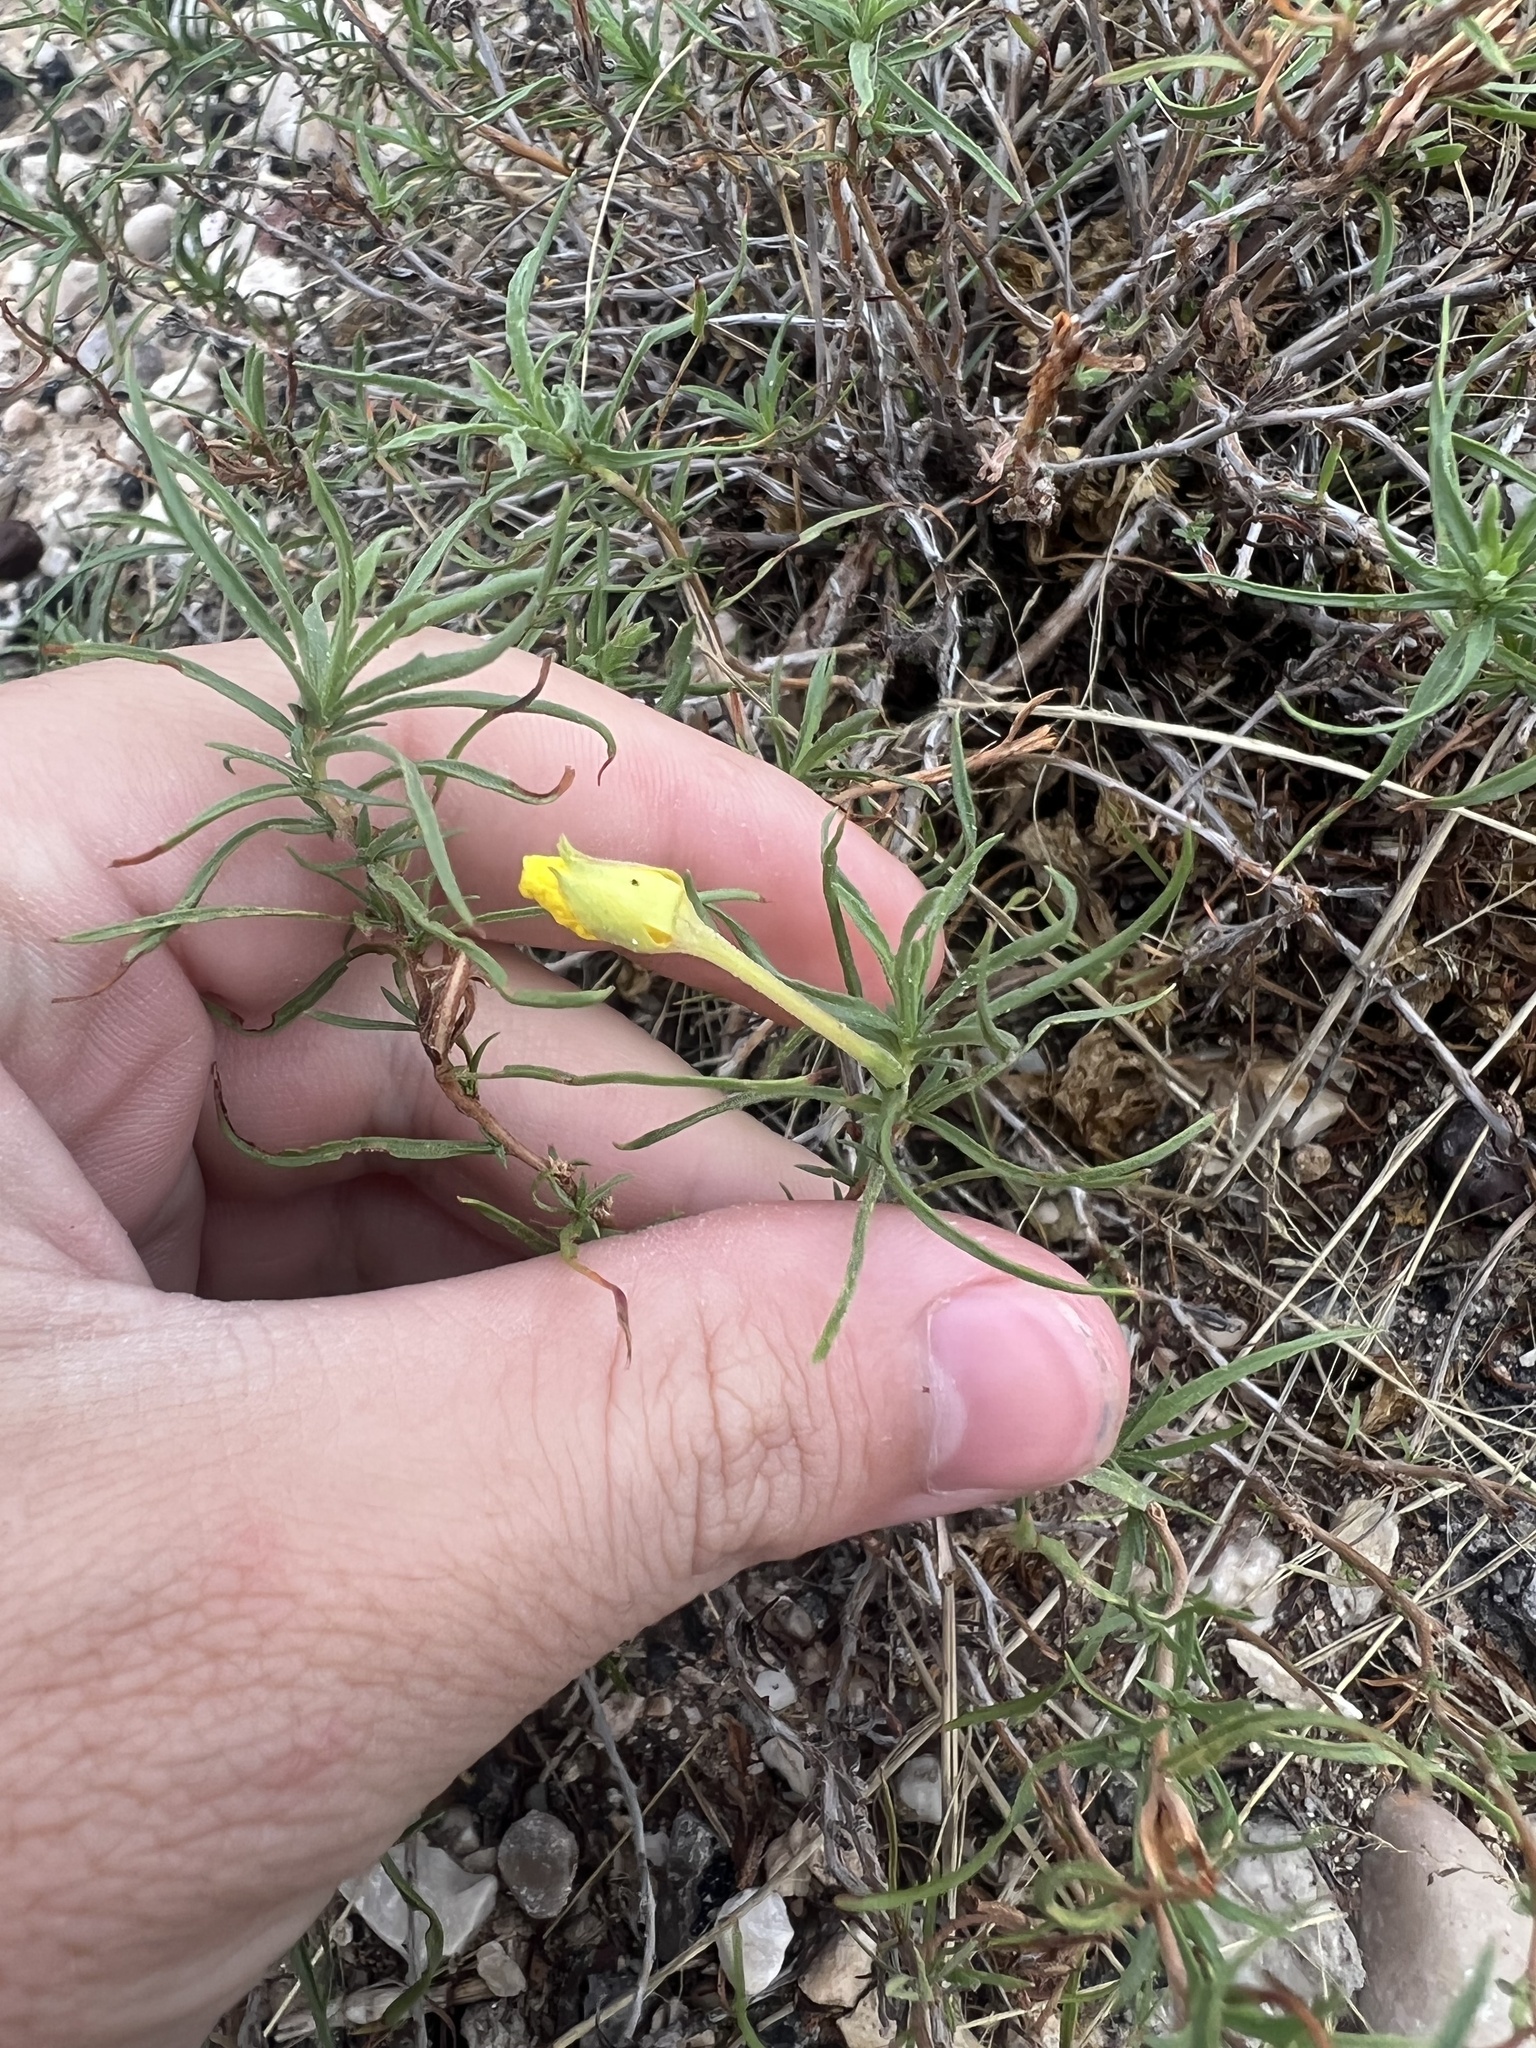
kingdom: Plantae
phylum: Tracheophyta
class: Magnoliopsida
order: Myrtales
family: Onagraceae
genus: Oenothera
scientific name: Oenothera gayleana
